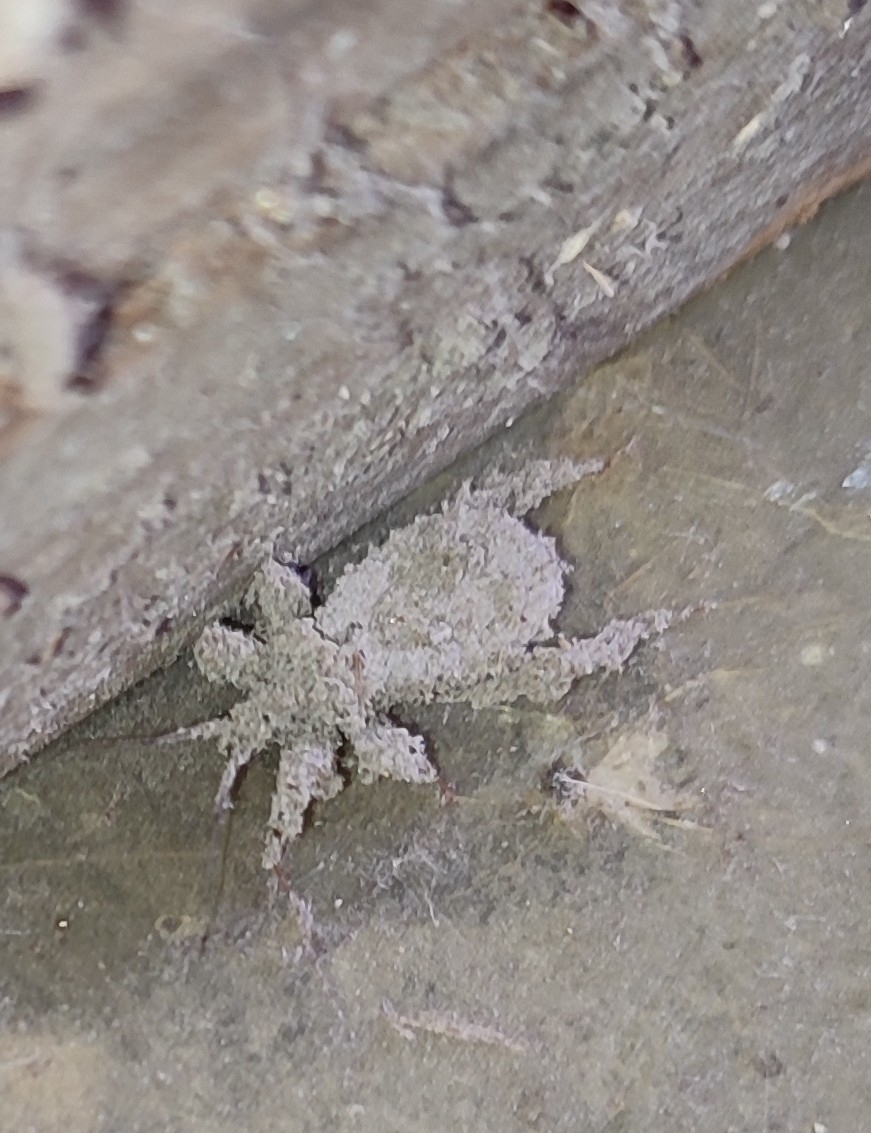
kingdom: Animalia
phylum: Arthropoda
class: Insecta
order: Hemiptera
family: Reduviidae
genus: Reduvius
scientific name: Reduvius personatus
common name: Masked hunter
